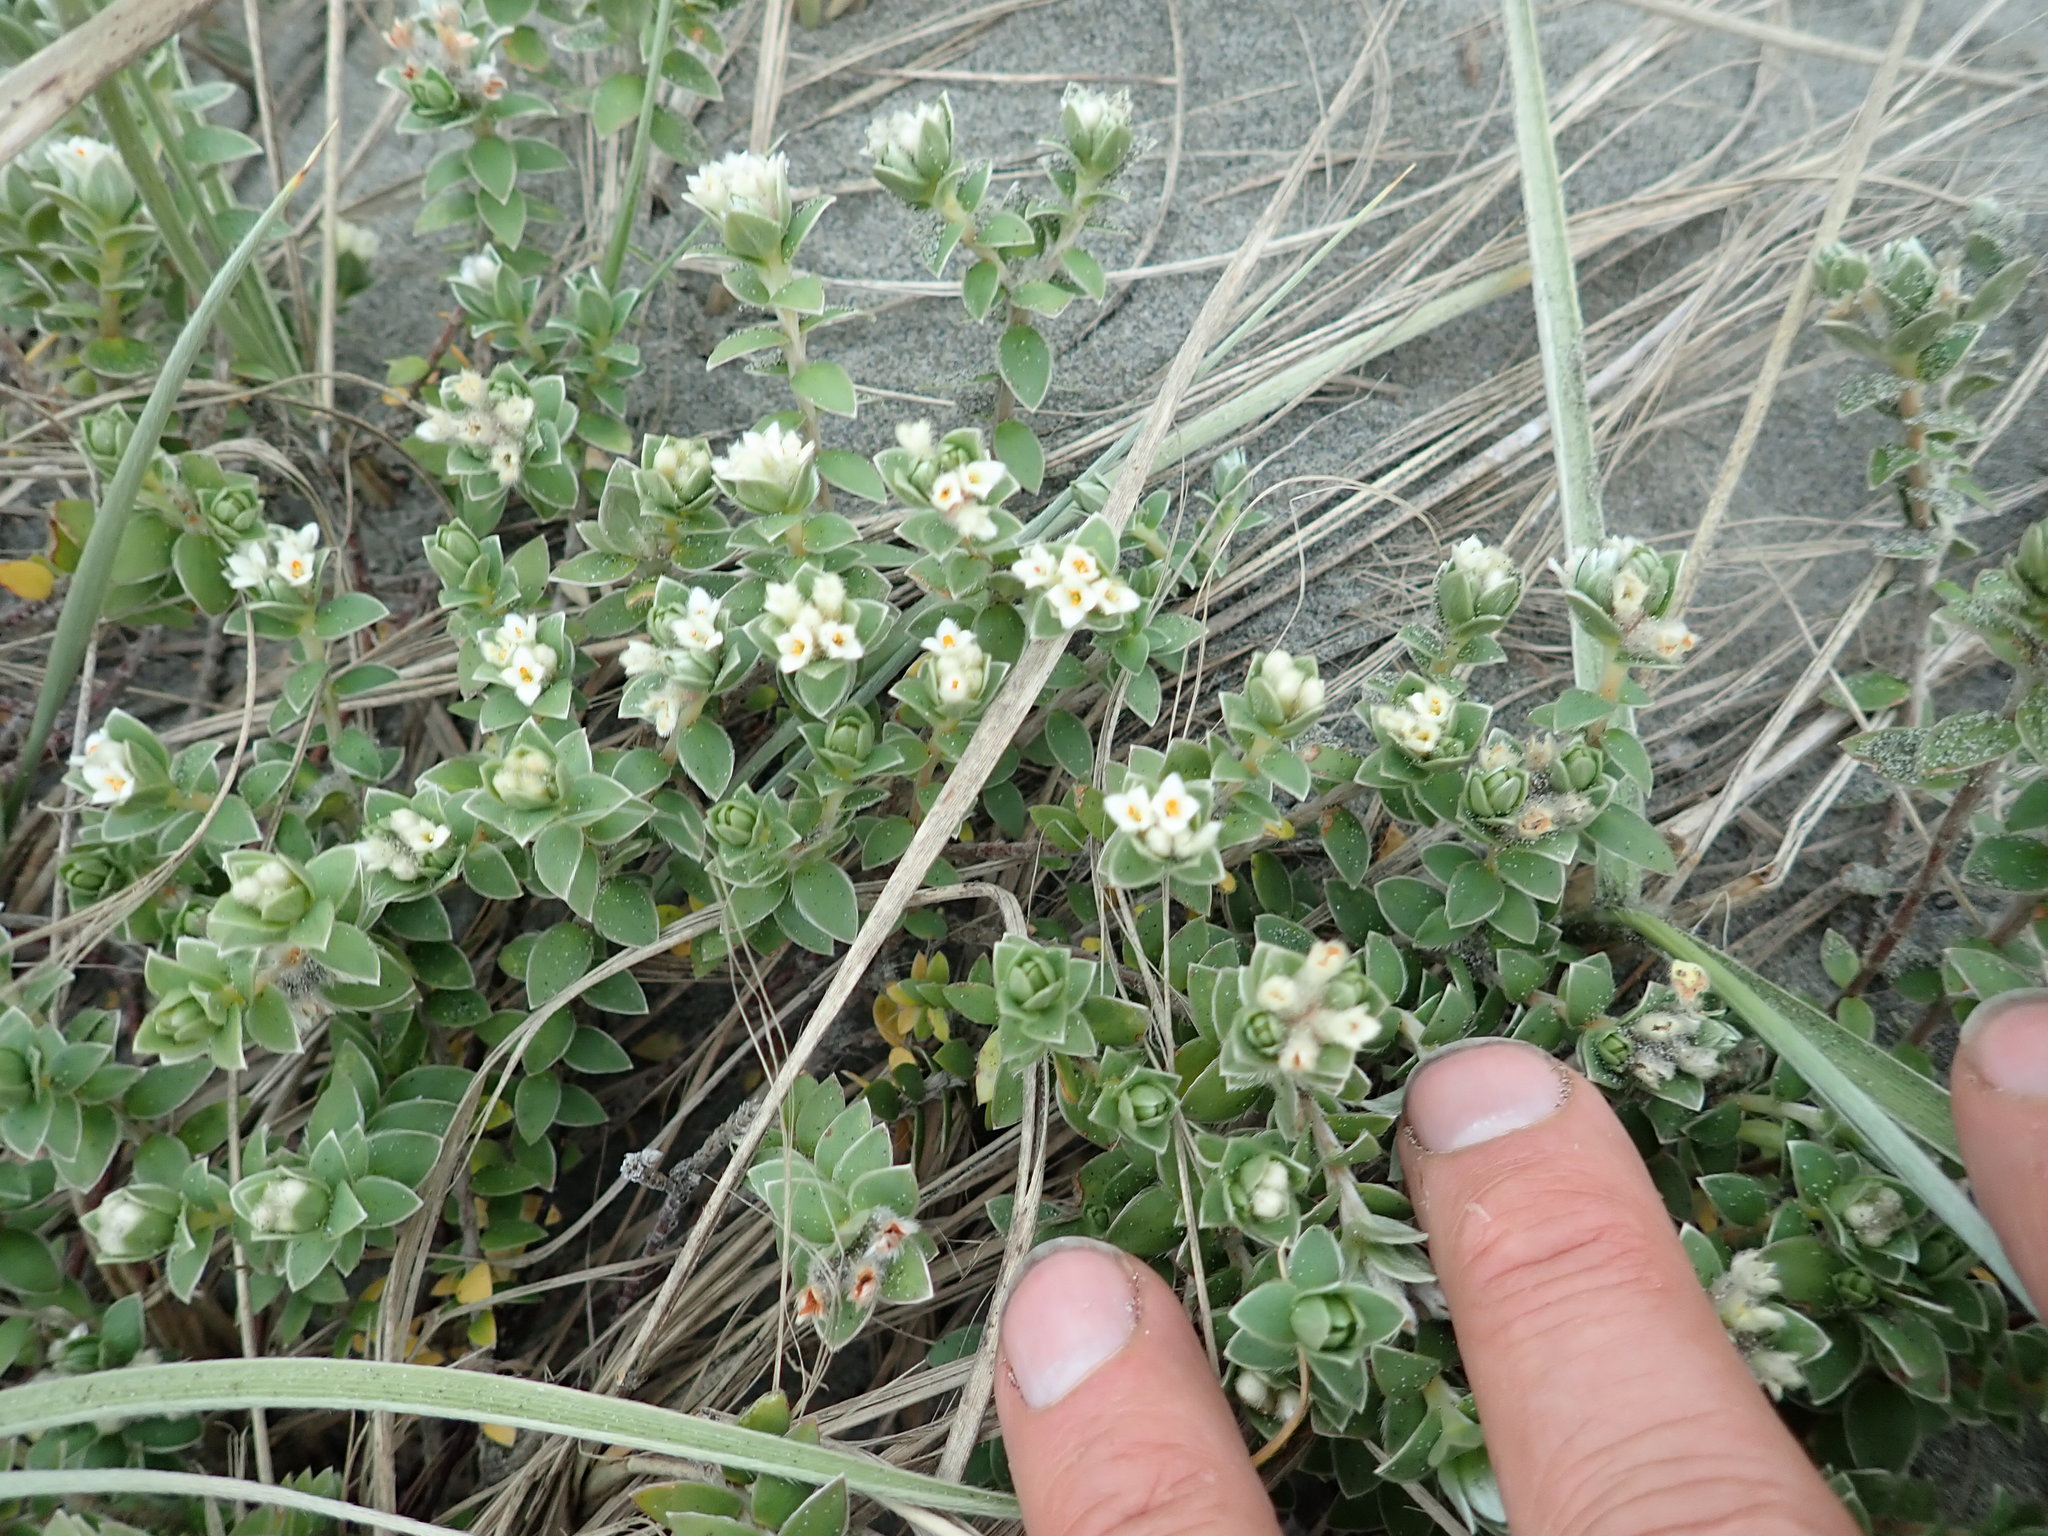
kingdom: Plantae
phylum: Tracheophyta
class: Magnoliopsida
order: Malvales
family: Thymelaeaceae
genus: Pimelea
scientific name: Pimelea villosa
